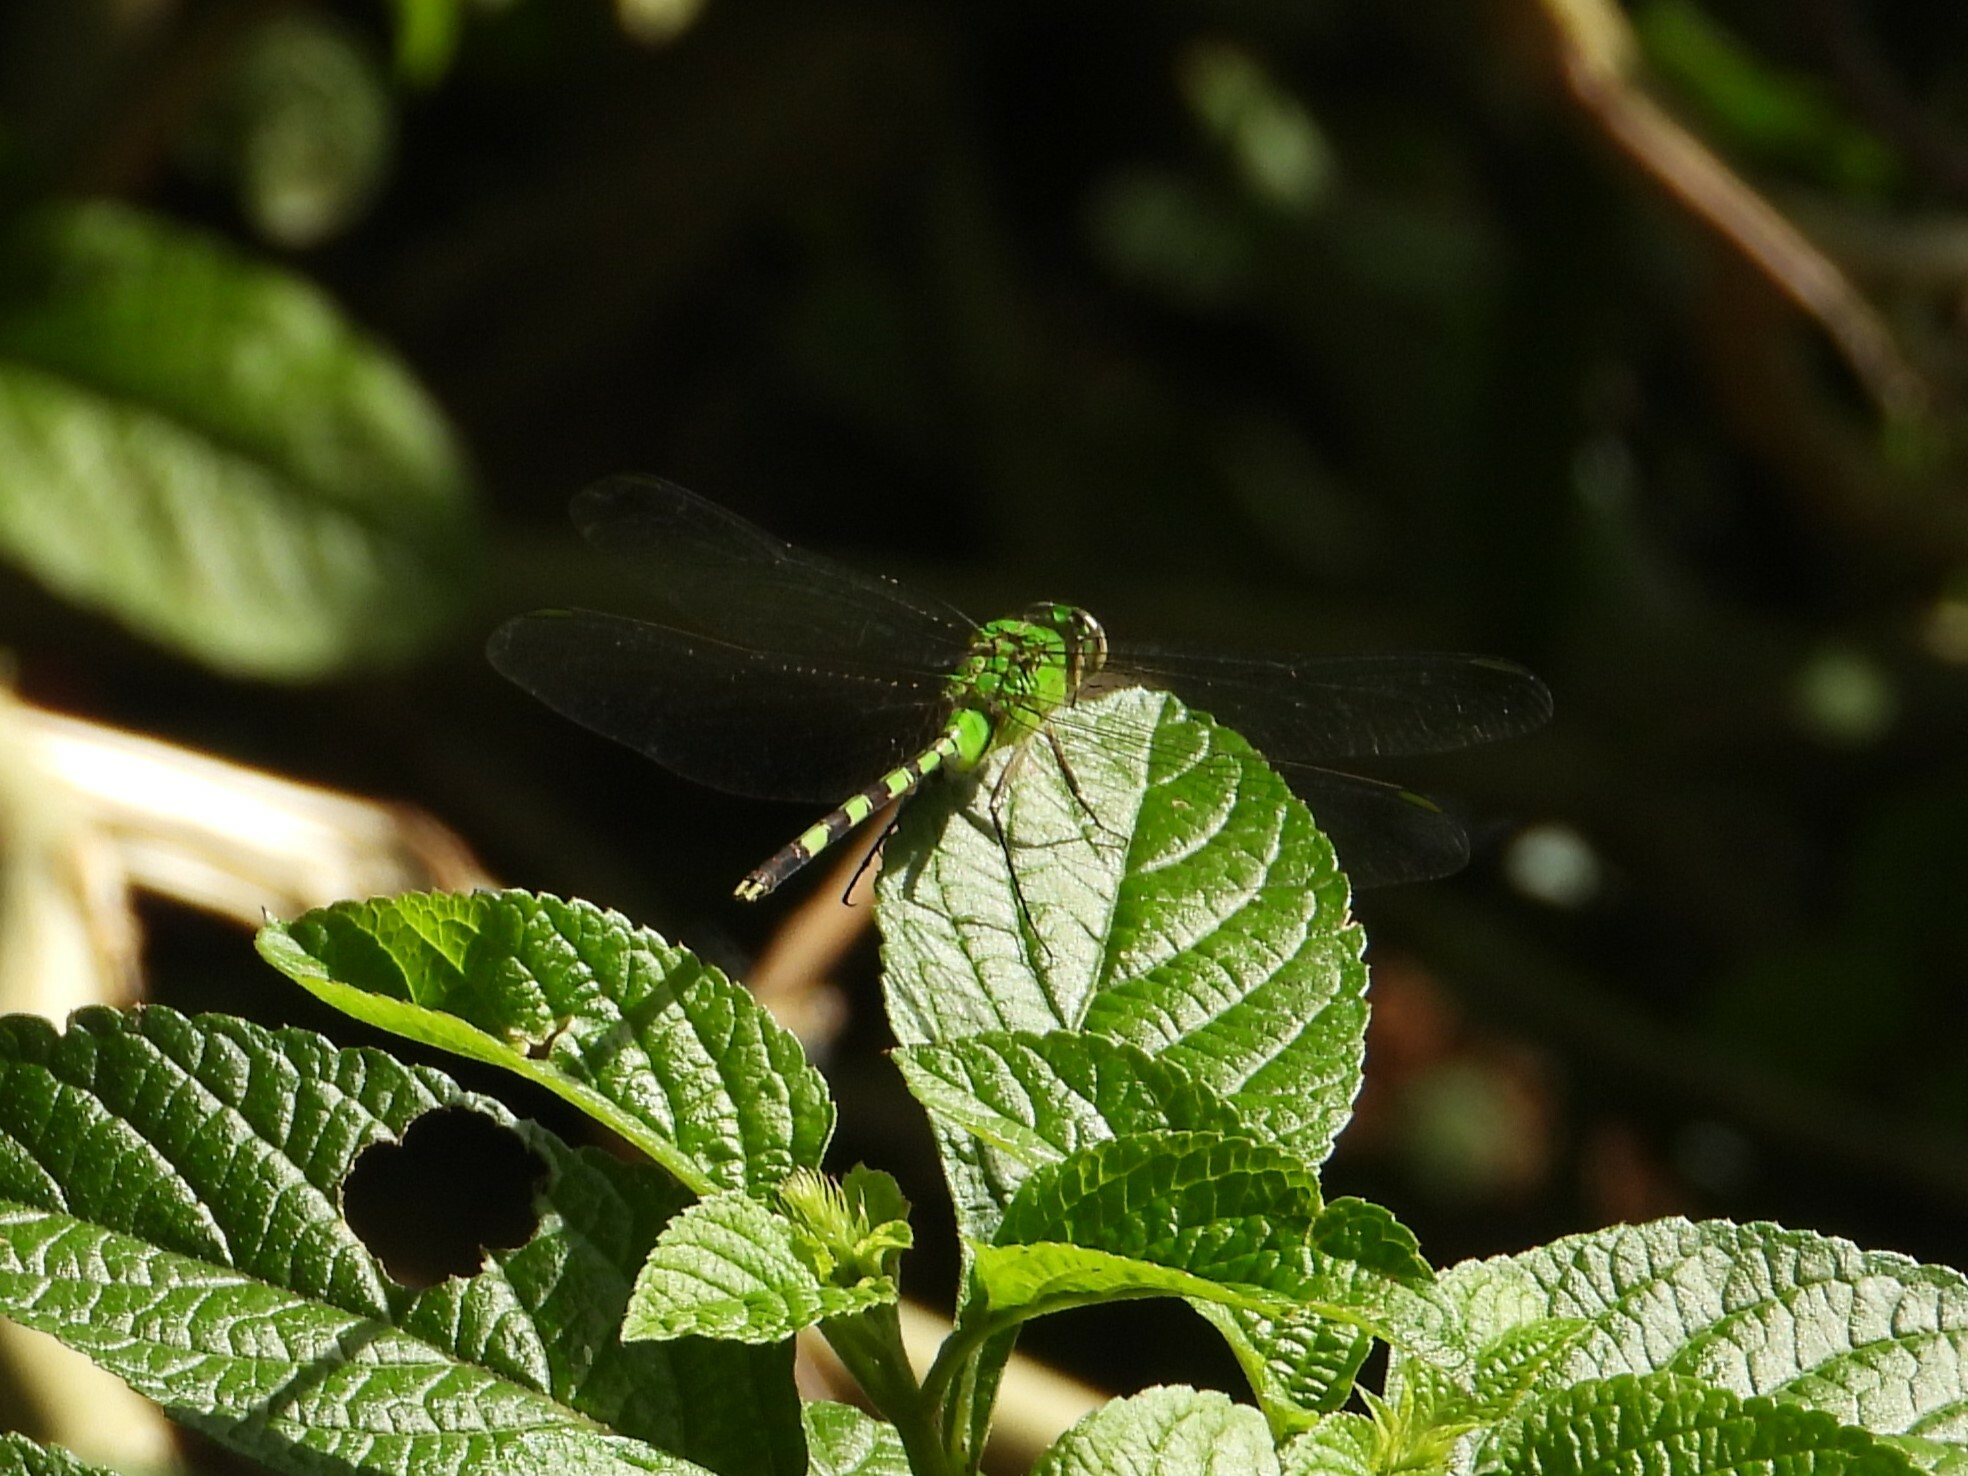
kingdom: Animalia
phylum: Arthropoda
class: Insecta
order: Odonata
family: Libellulidae
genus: Erythemis
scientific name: Erythemis vesiculosa
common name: Great pondhawk
